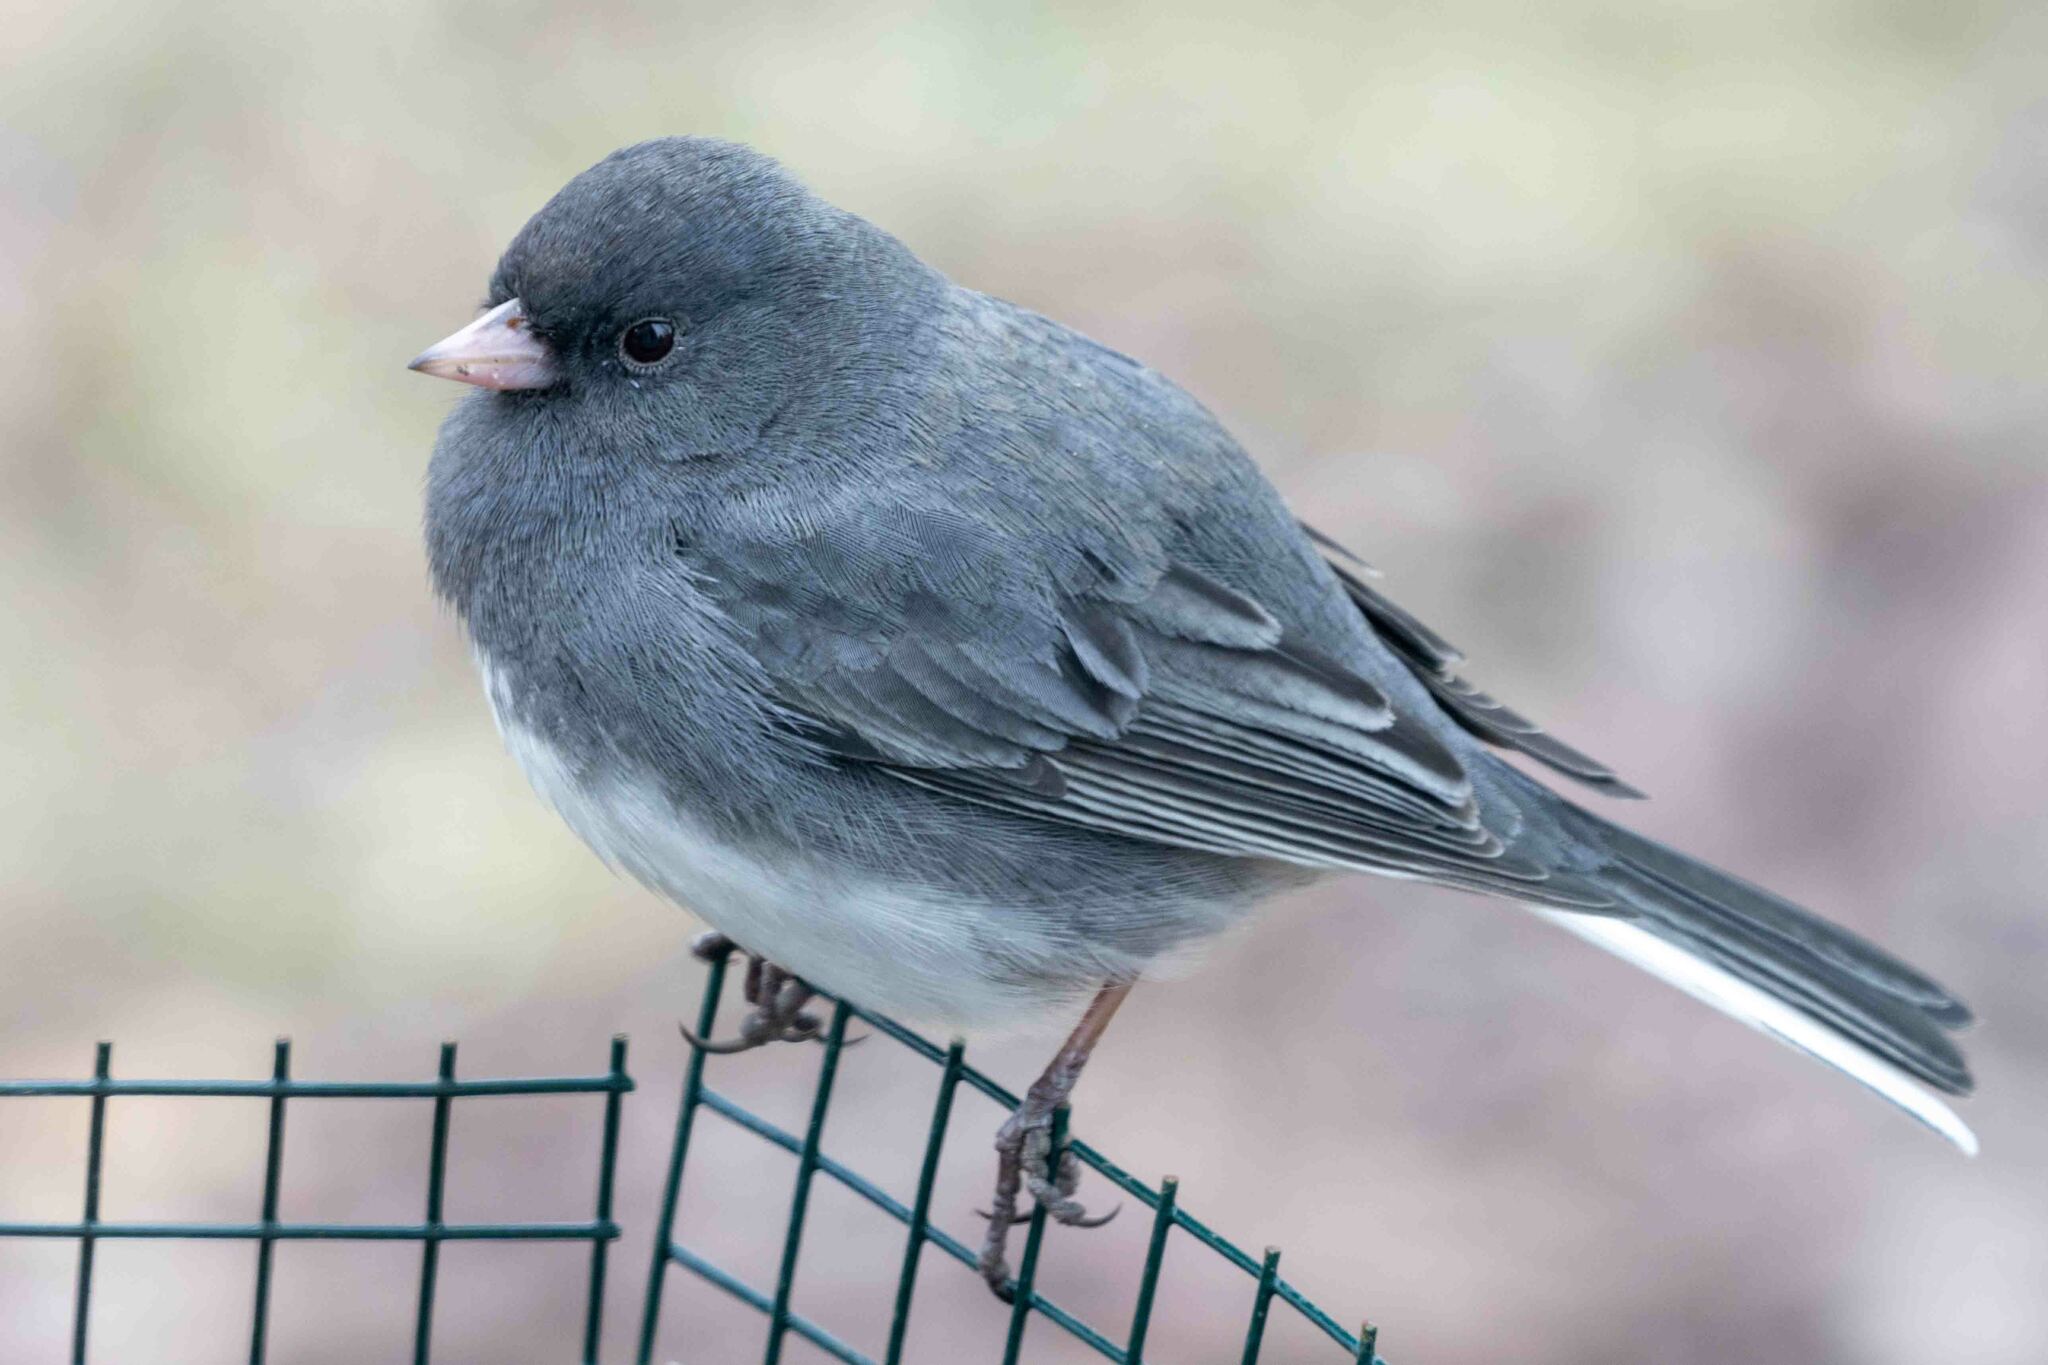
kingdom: Animalia
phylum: Chordata
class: Aves
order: Passeriformes
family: Passerellidae
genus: Junco
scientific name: Junco hyemalis
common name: Dark-eyed junco
